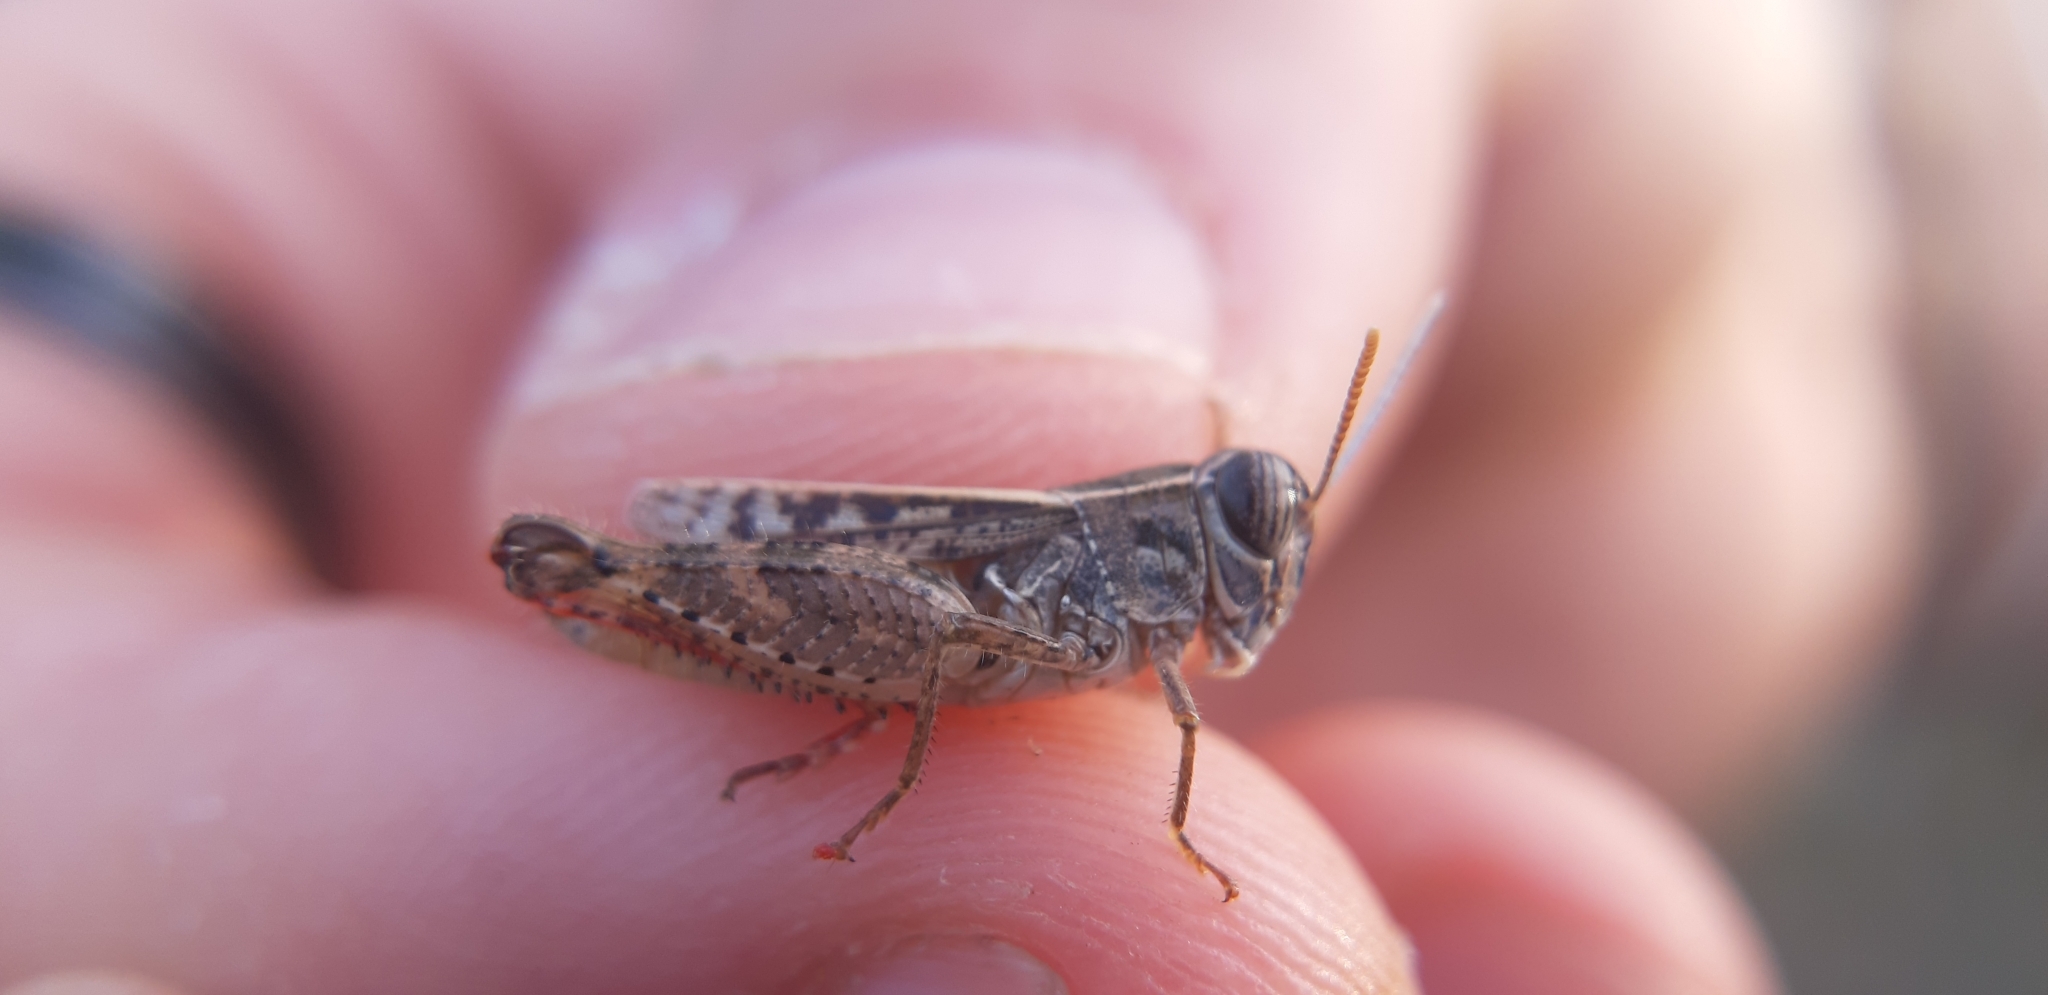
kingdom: Animalia
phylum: Arthropoda
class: Insecta
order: Orthoptera
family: Acrididae
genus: Calliptamus
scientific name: Calliptamus siciliae
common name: Pygmy pincer grasshopper
